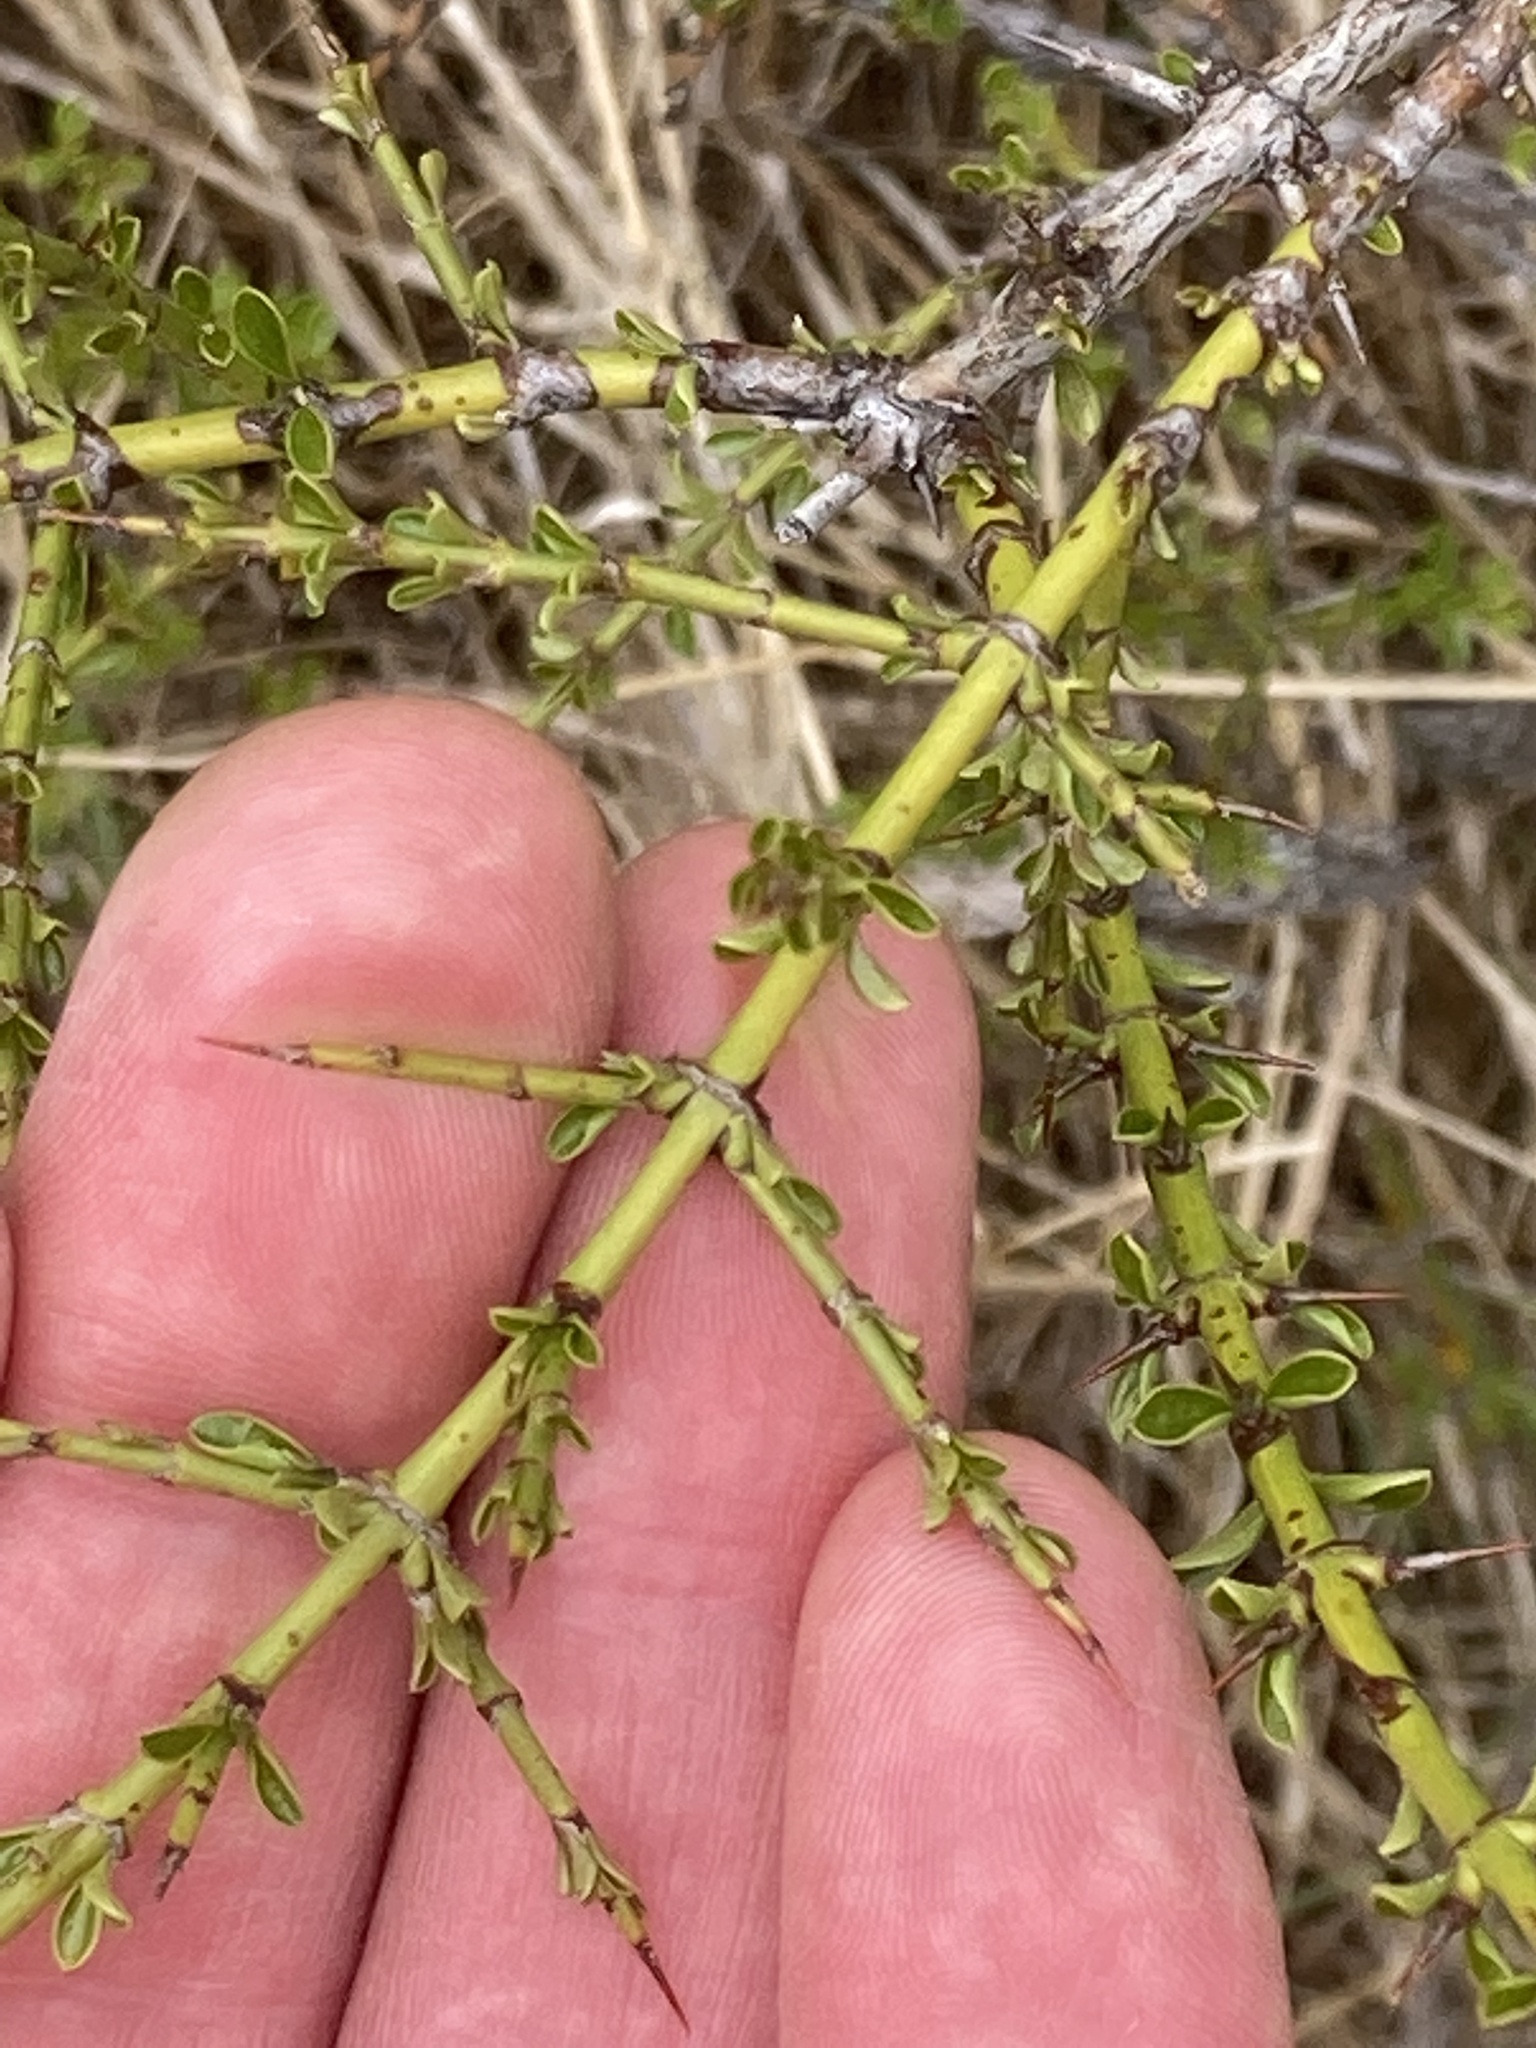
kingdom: Plantae
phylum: Tracheophyta
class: Magnoliopsida
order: Rosales
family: Rhamnaceae
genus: Ochetophila
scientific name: Ochetophila trinervis
